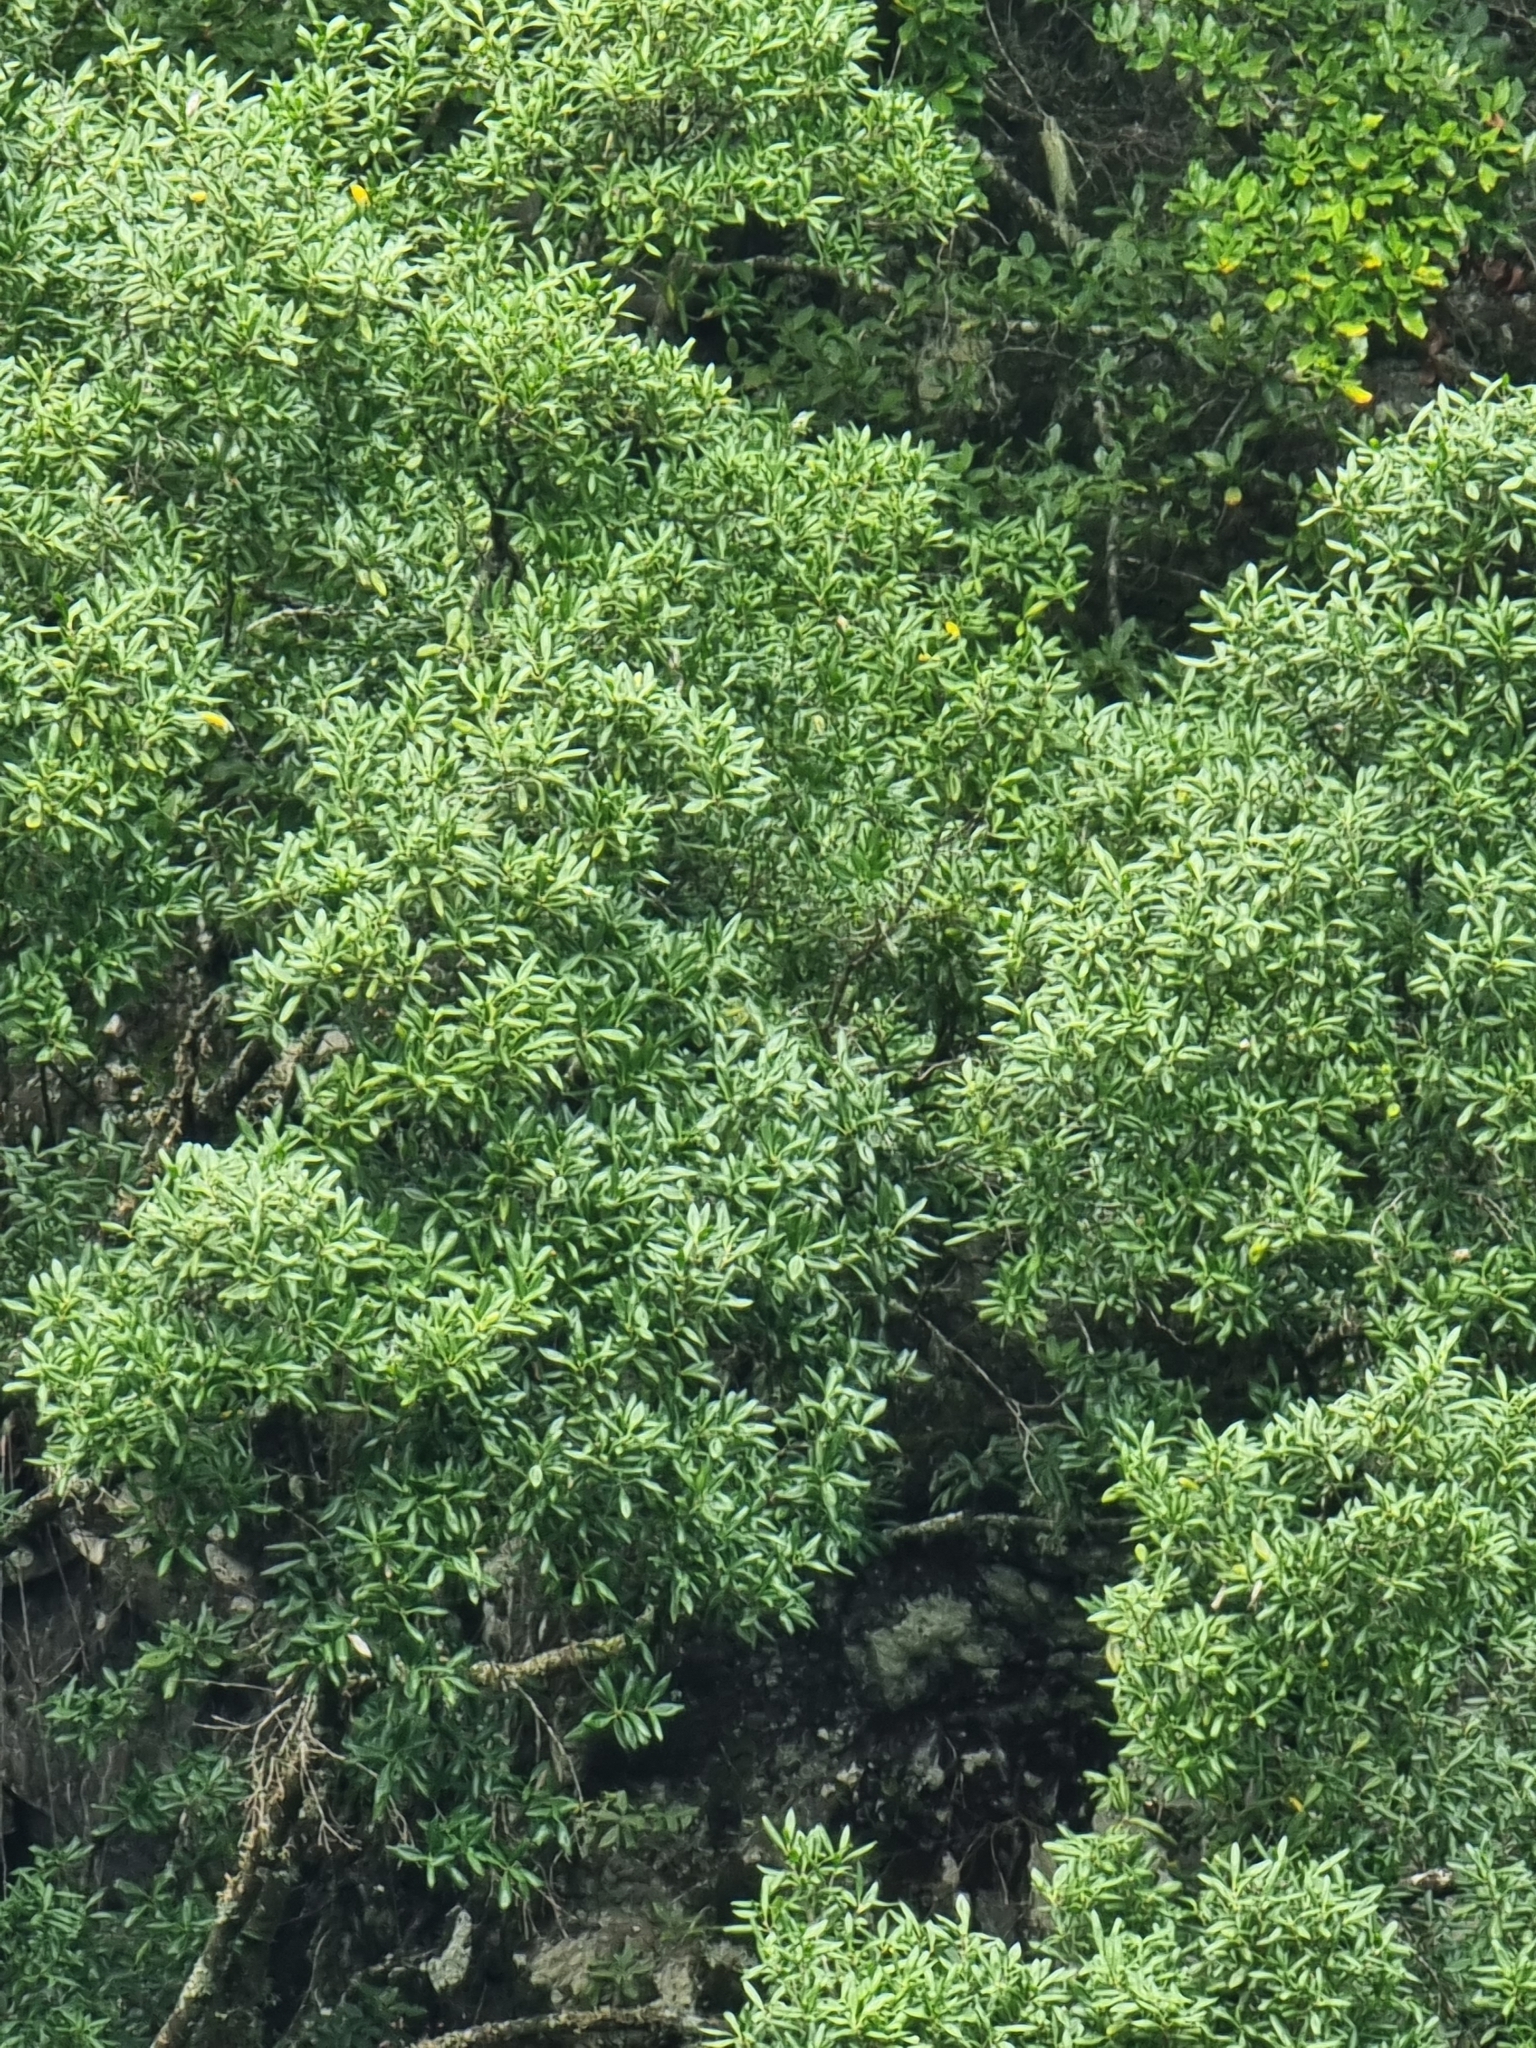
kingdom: Plantae
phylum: Tracheophyta
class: Magnoliopsida
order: Laurales
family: Lauraceae
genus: Mespilodaphne
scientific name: Mespilodaphne foetens
